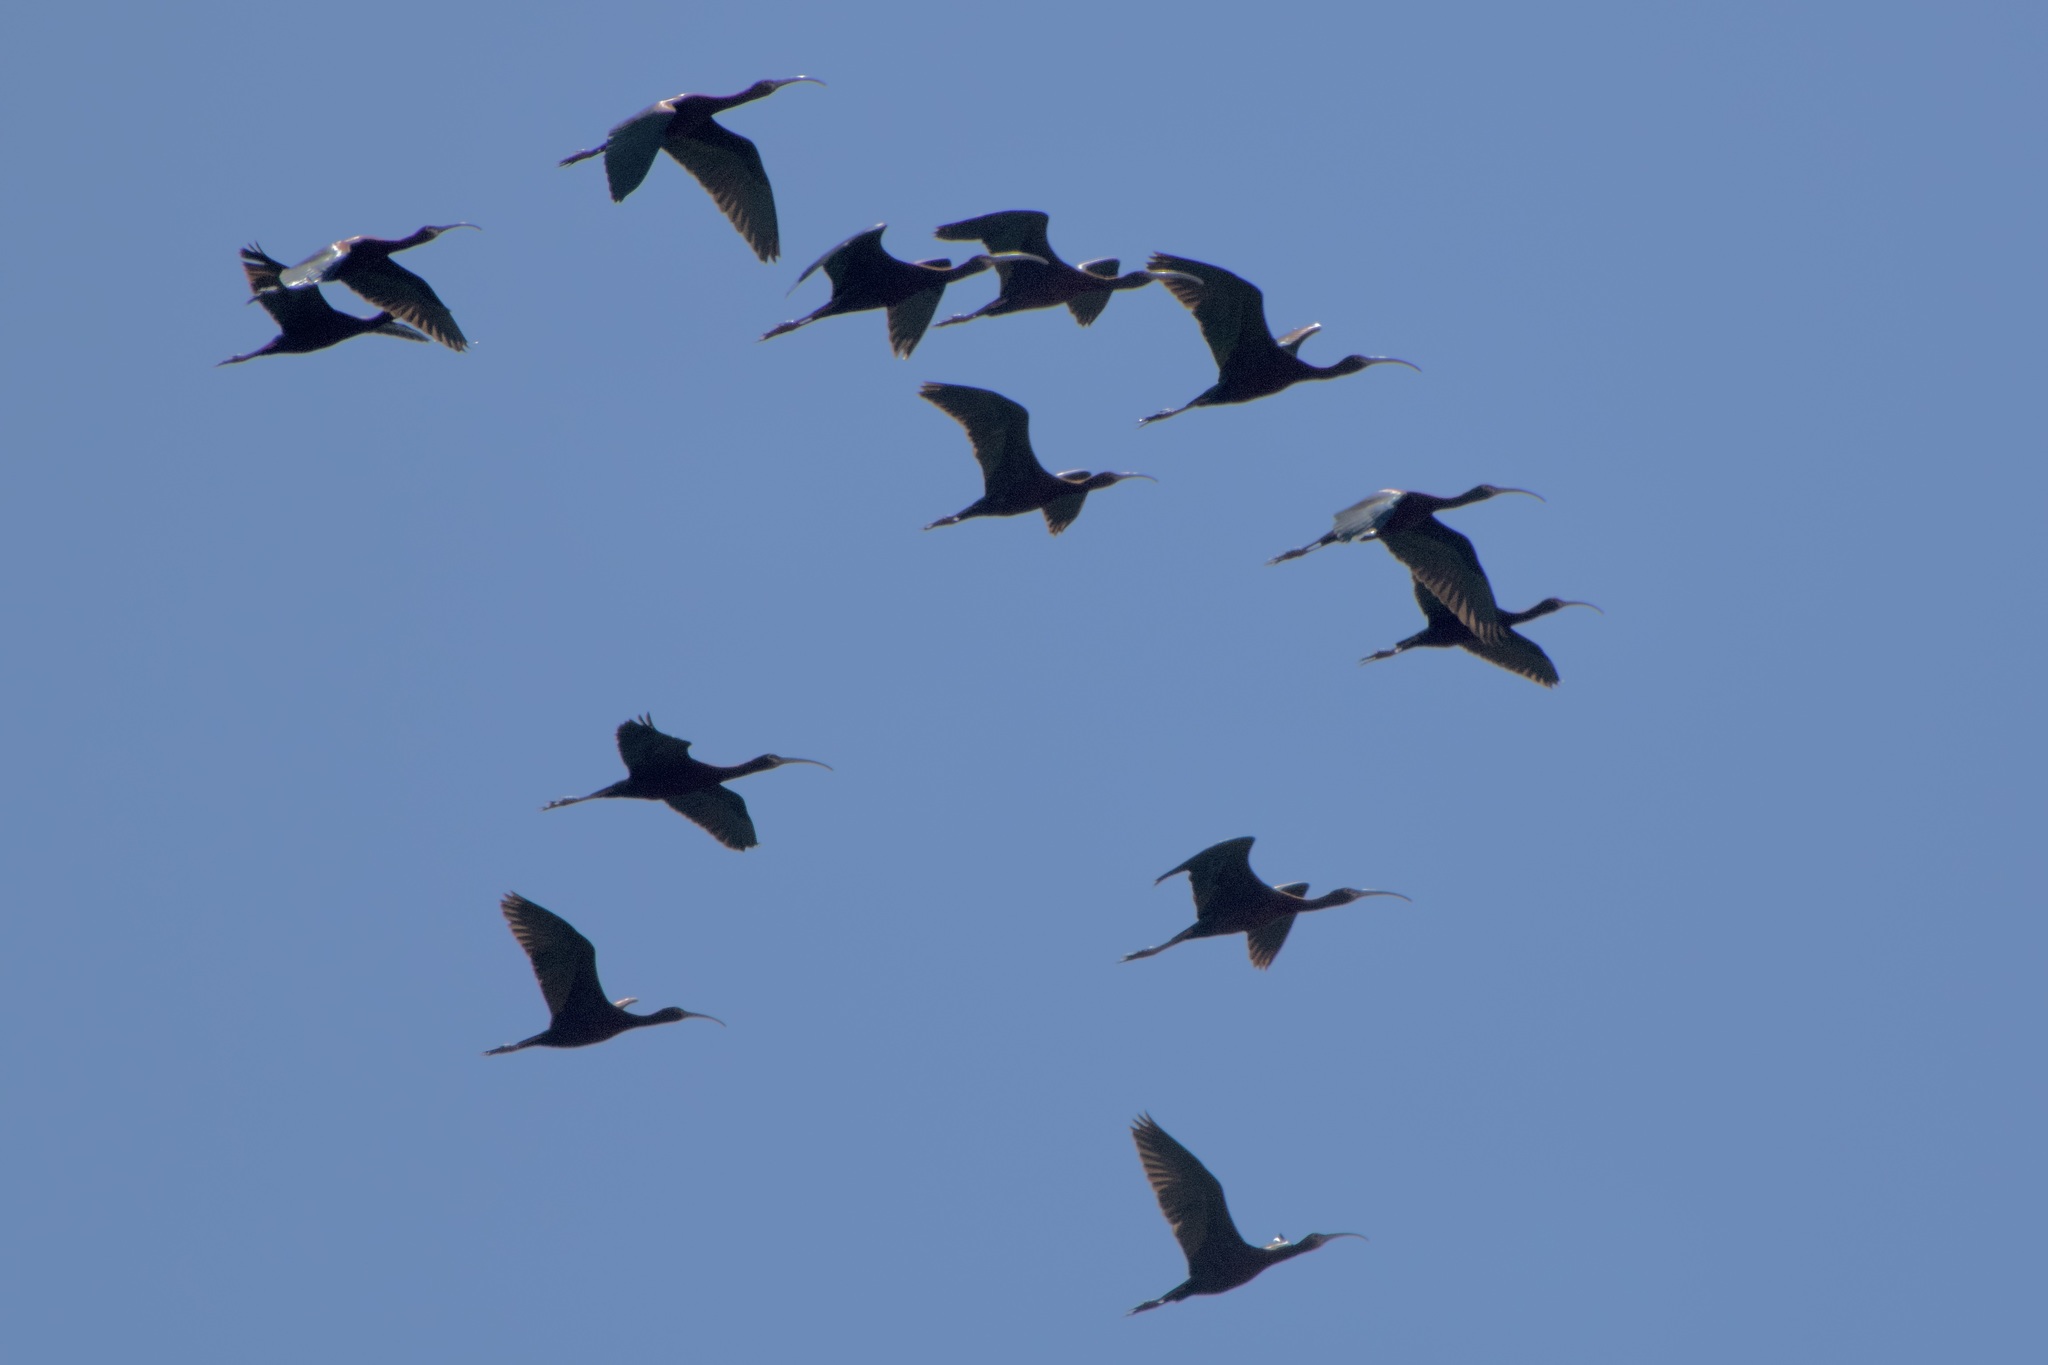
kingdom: Animalia
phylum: Chordata
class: Aves
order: Pelecaniformes
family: Threskiornithidae
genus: Plegadis
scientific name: Plegadis chihi
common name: White-faced ibis
